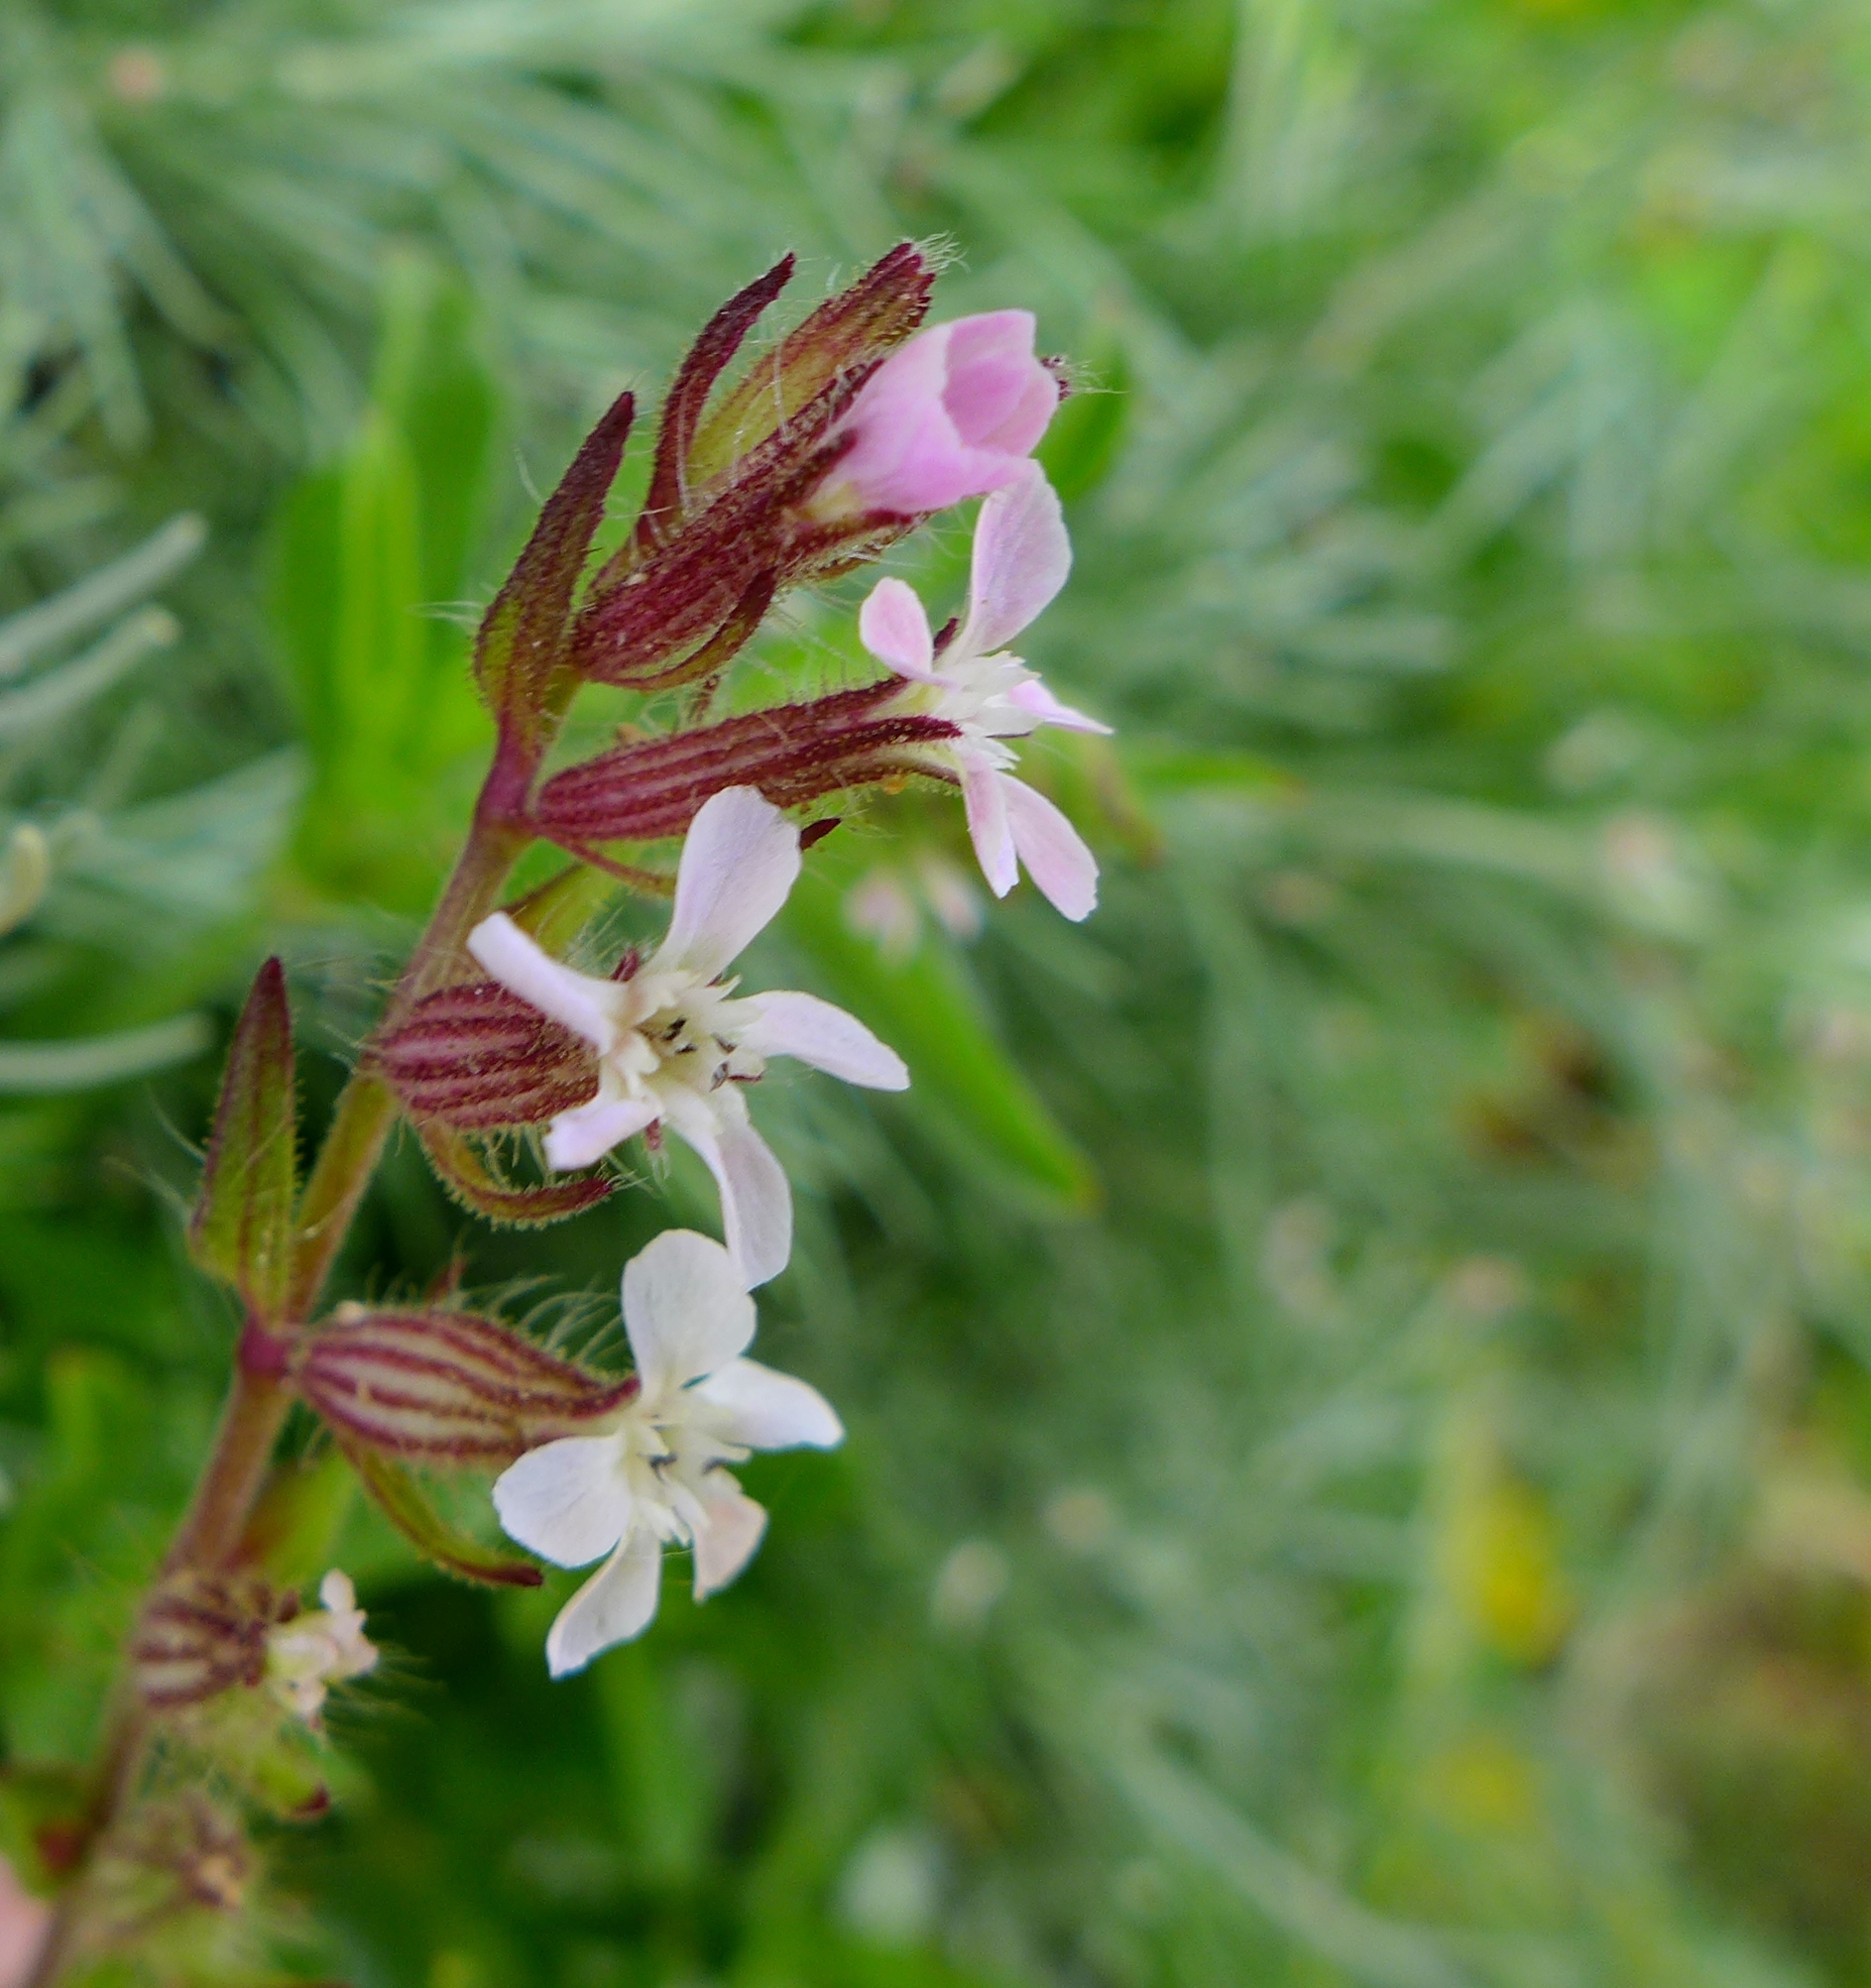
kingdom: Plantae
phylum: Tracheophyta
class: Magnoliopsida
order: Caryophyllales
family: Caryophyllaceae
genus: Silene
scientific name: Silene gallica
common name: Small-flowered catchfly
